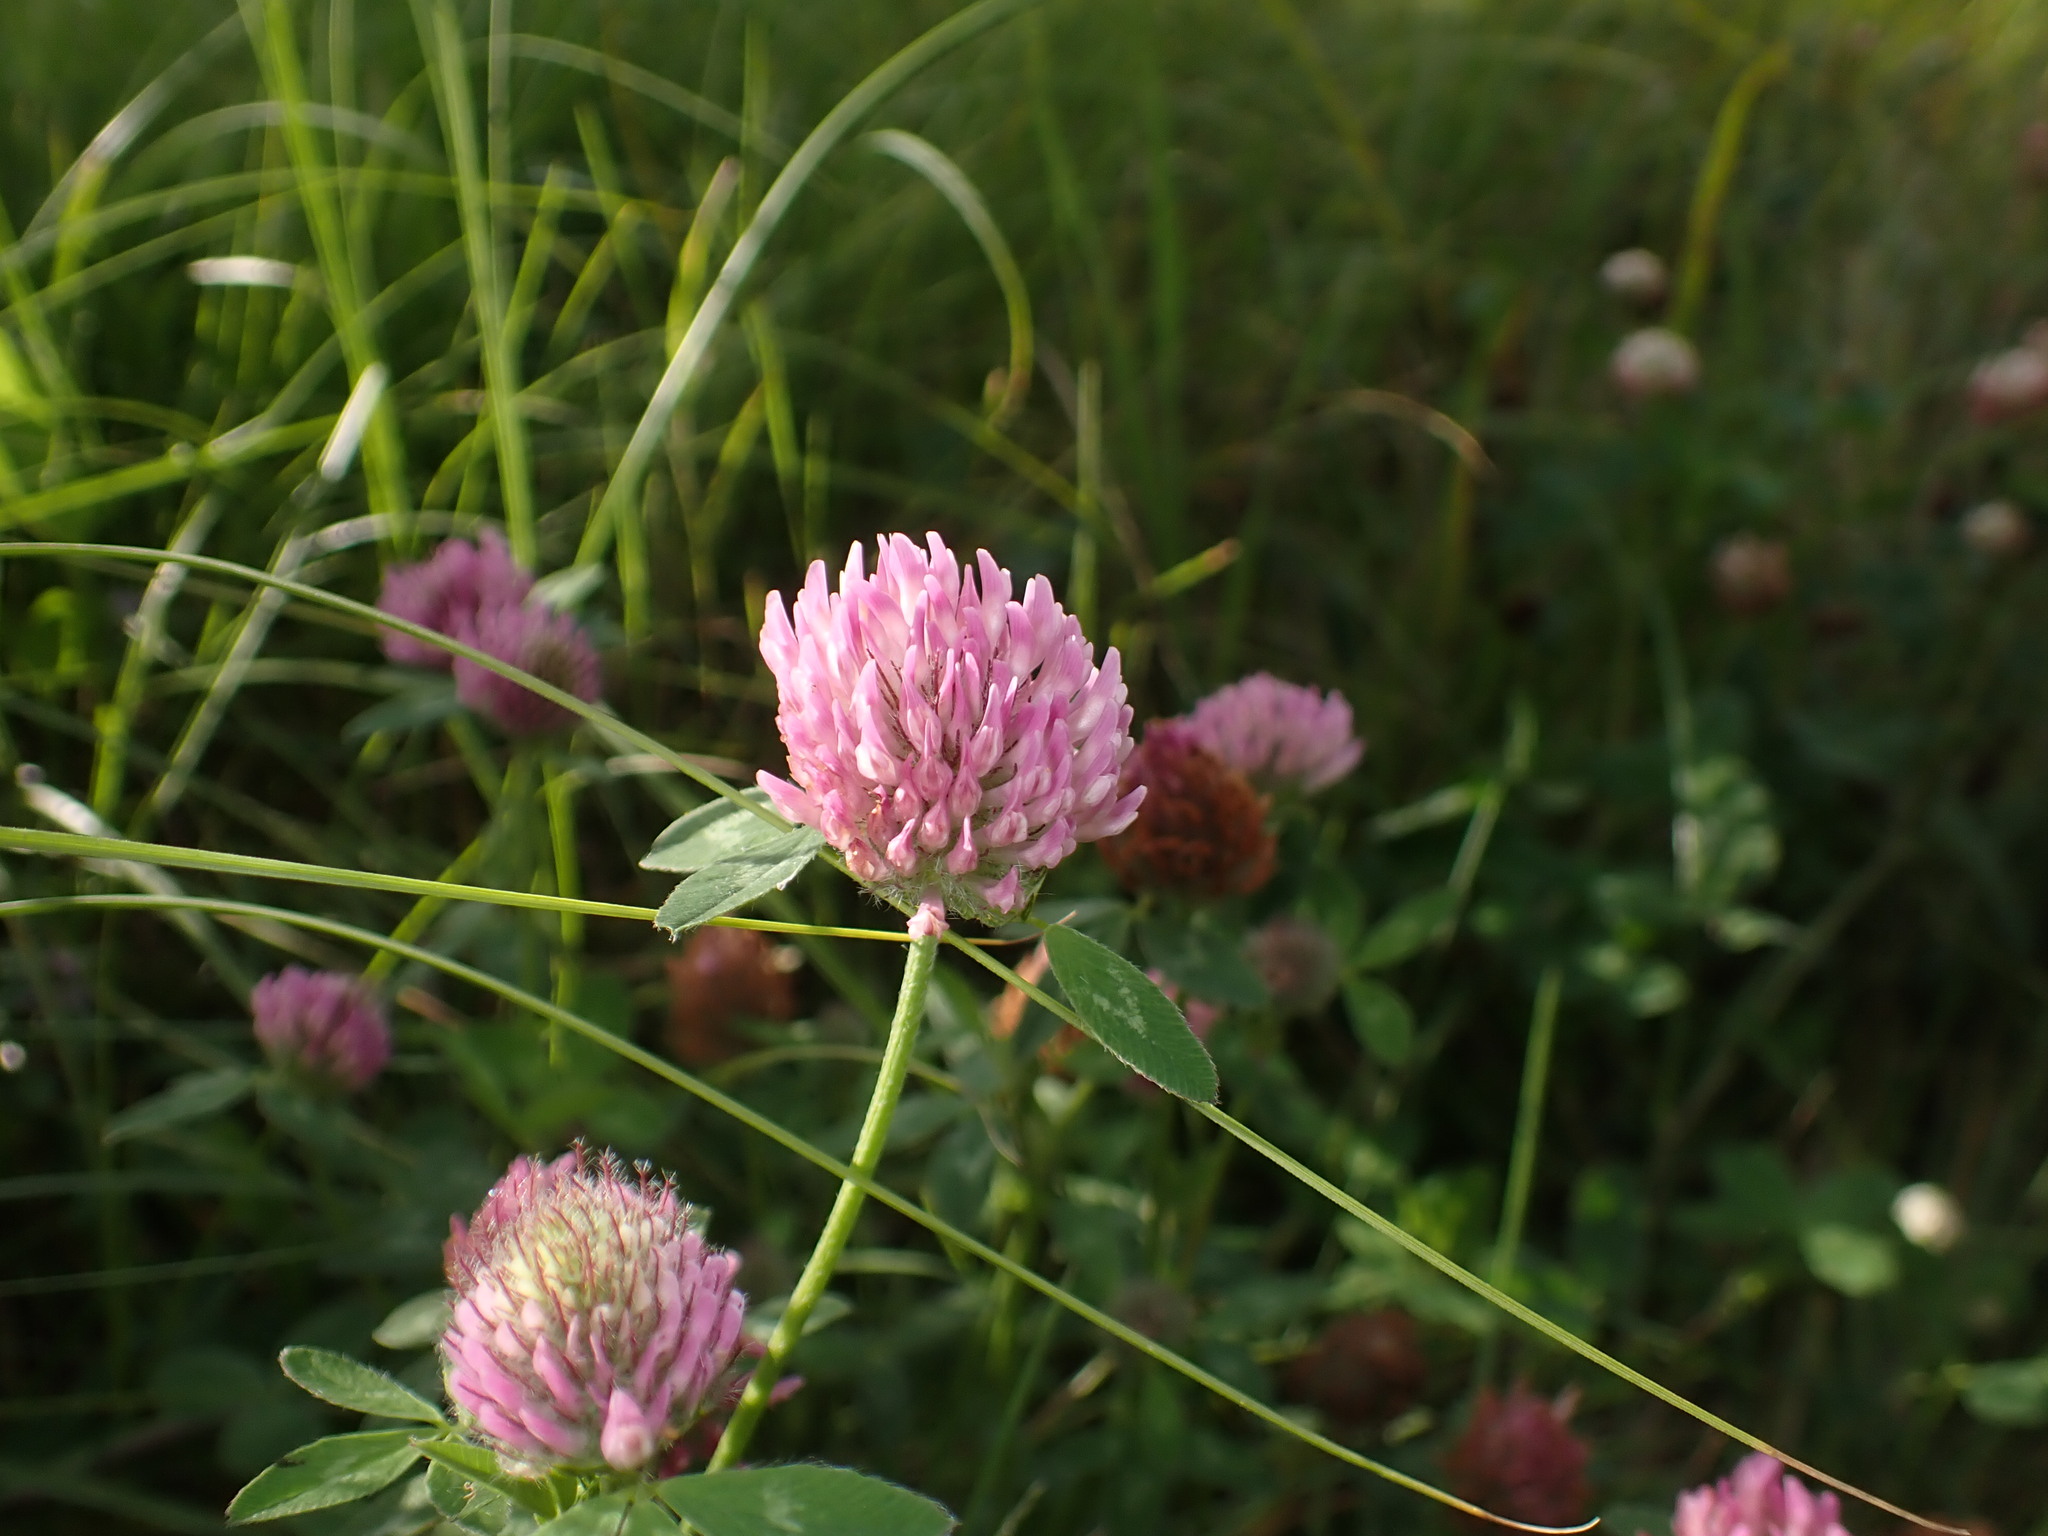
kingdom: Plantae
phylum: Tracheophyta
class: Magnoliopsida
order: Fabales
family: Fabaceae
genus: Trifolium
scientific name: Trifolium pratense
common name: Red clover
